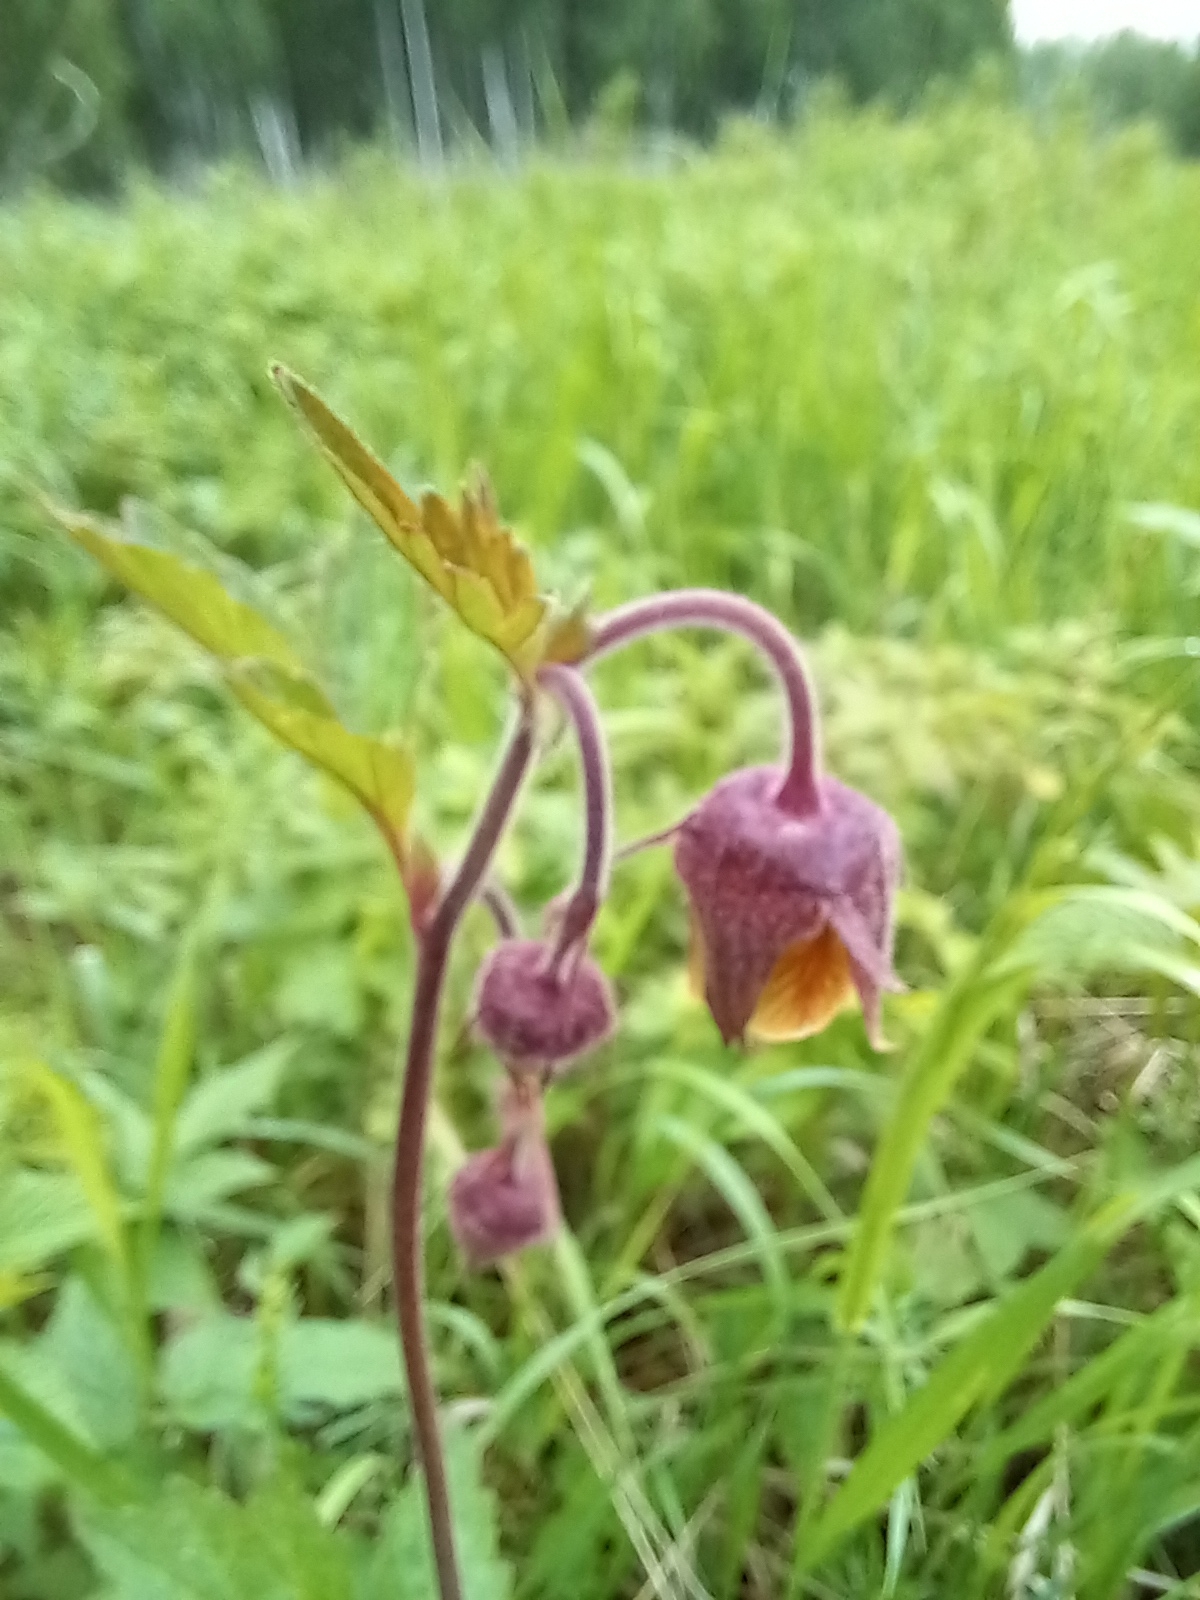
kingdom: Plantae
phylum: Tracheophyta
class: Magnoliopsida
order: Rosales
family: Rosaceae
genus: Geum
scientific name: Geum rivale
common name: Water avens
